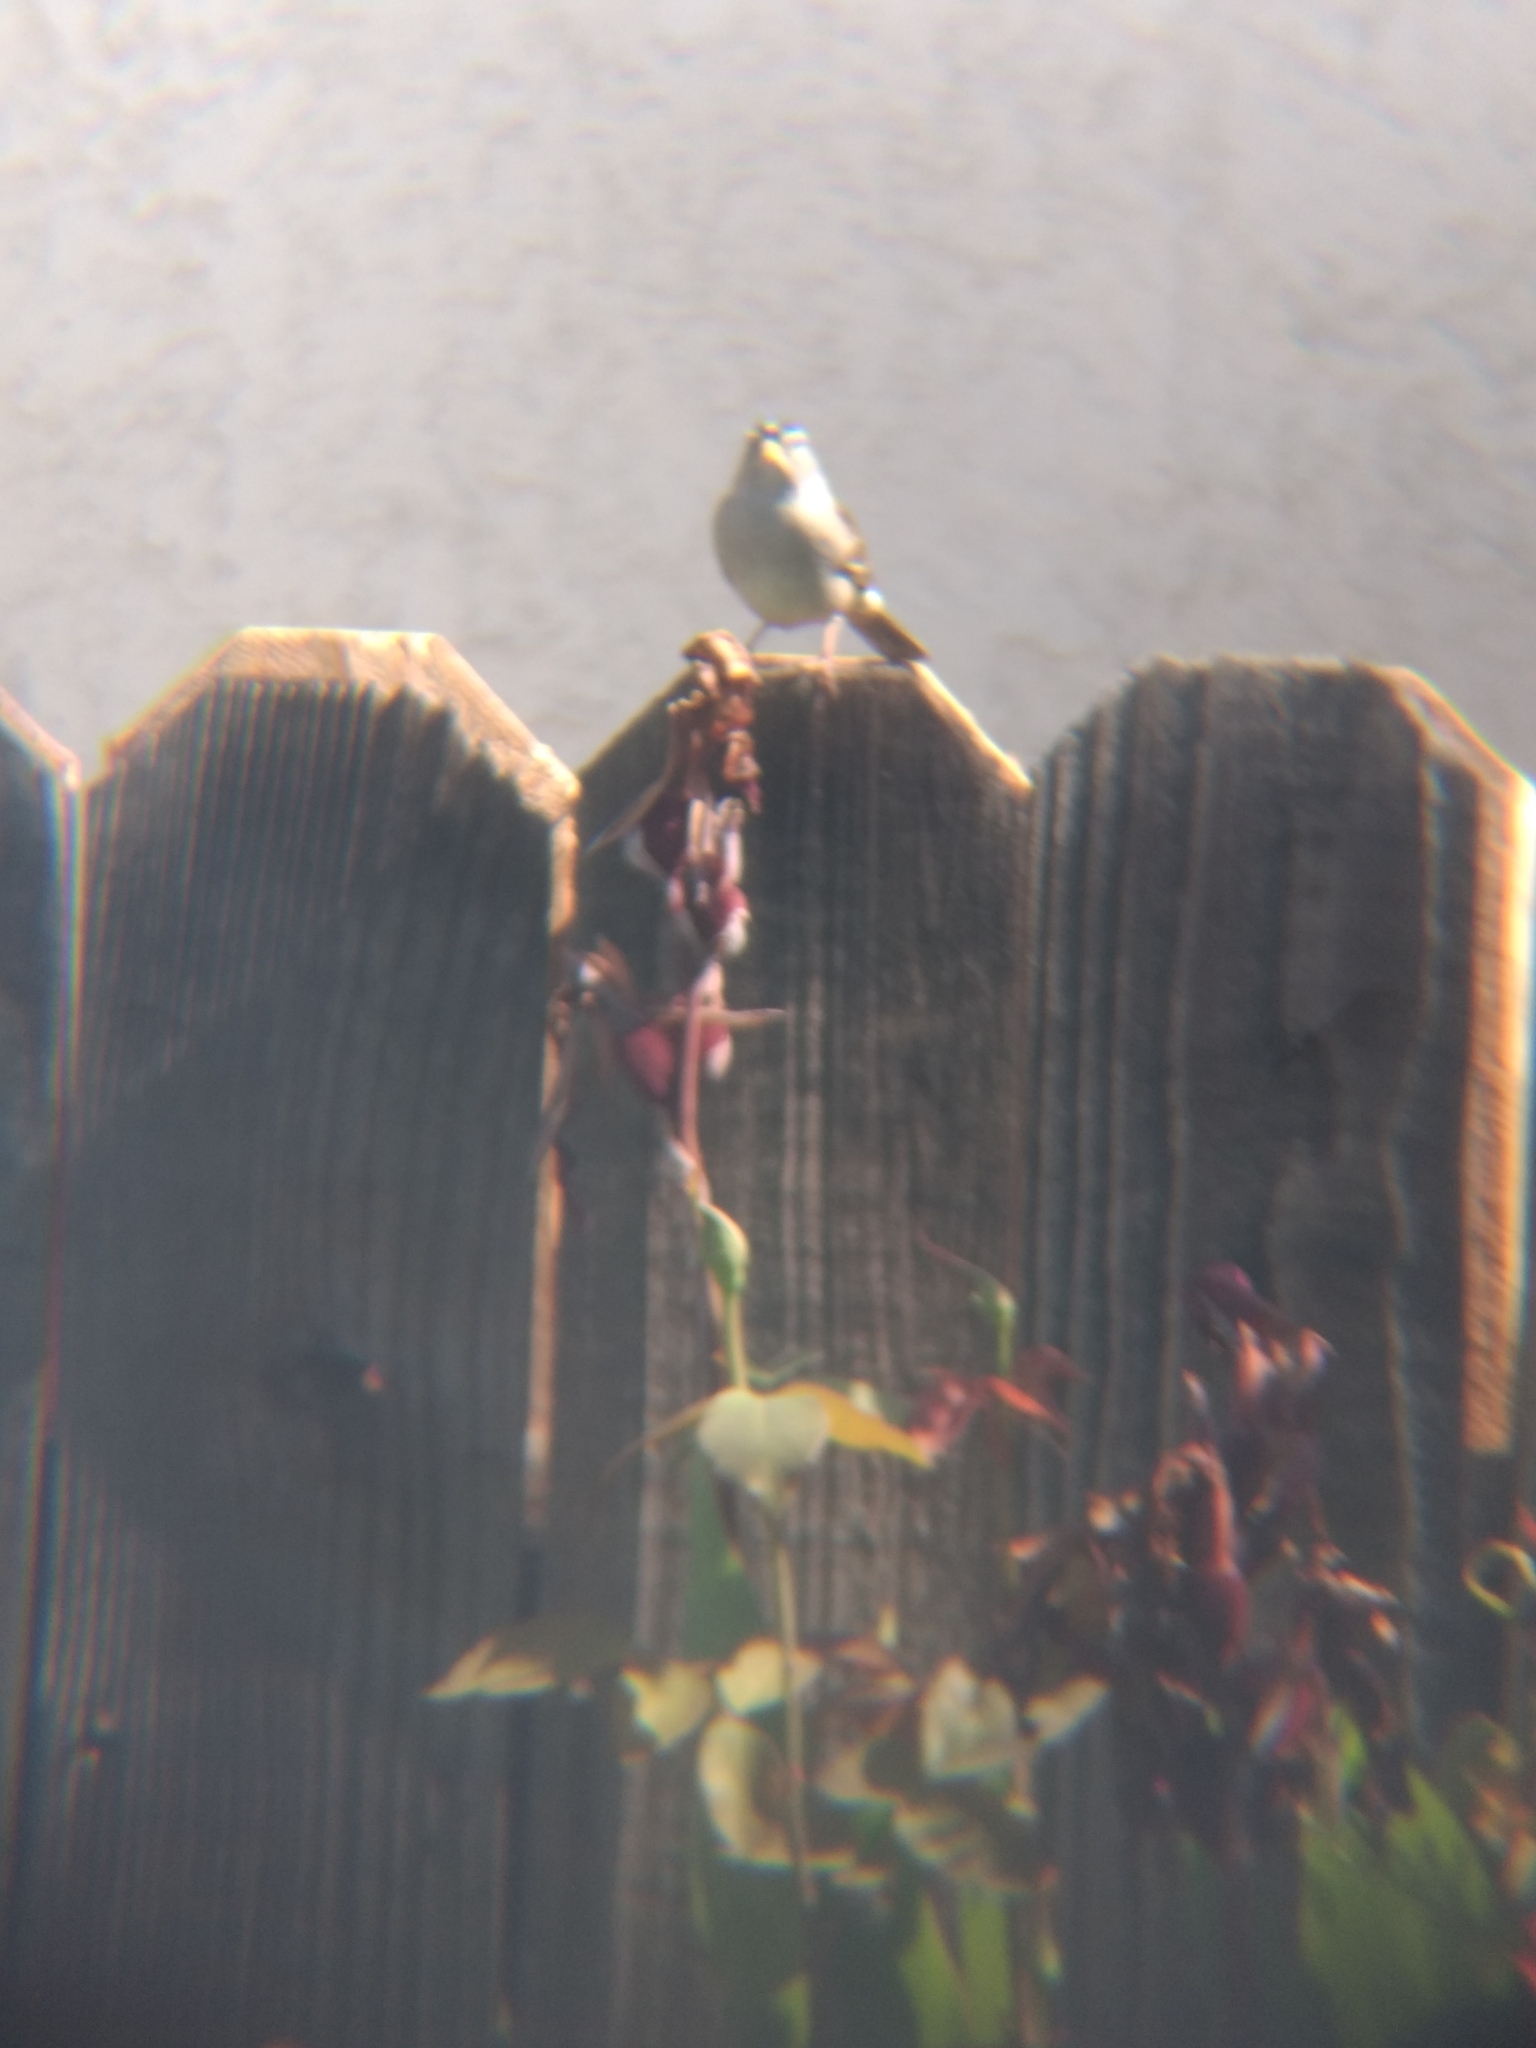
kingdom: Animalia
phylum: Chordata
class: Aves
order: Passeriformes
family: Passerellidae
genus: Zonotrichia
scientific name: Zonotrichia leucophrys
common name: White-crowned sparrow
